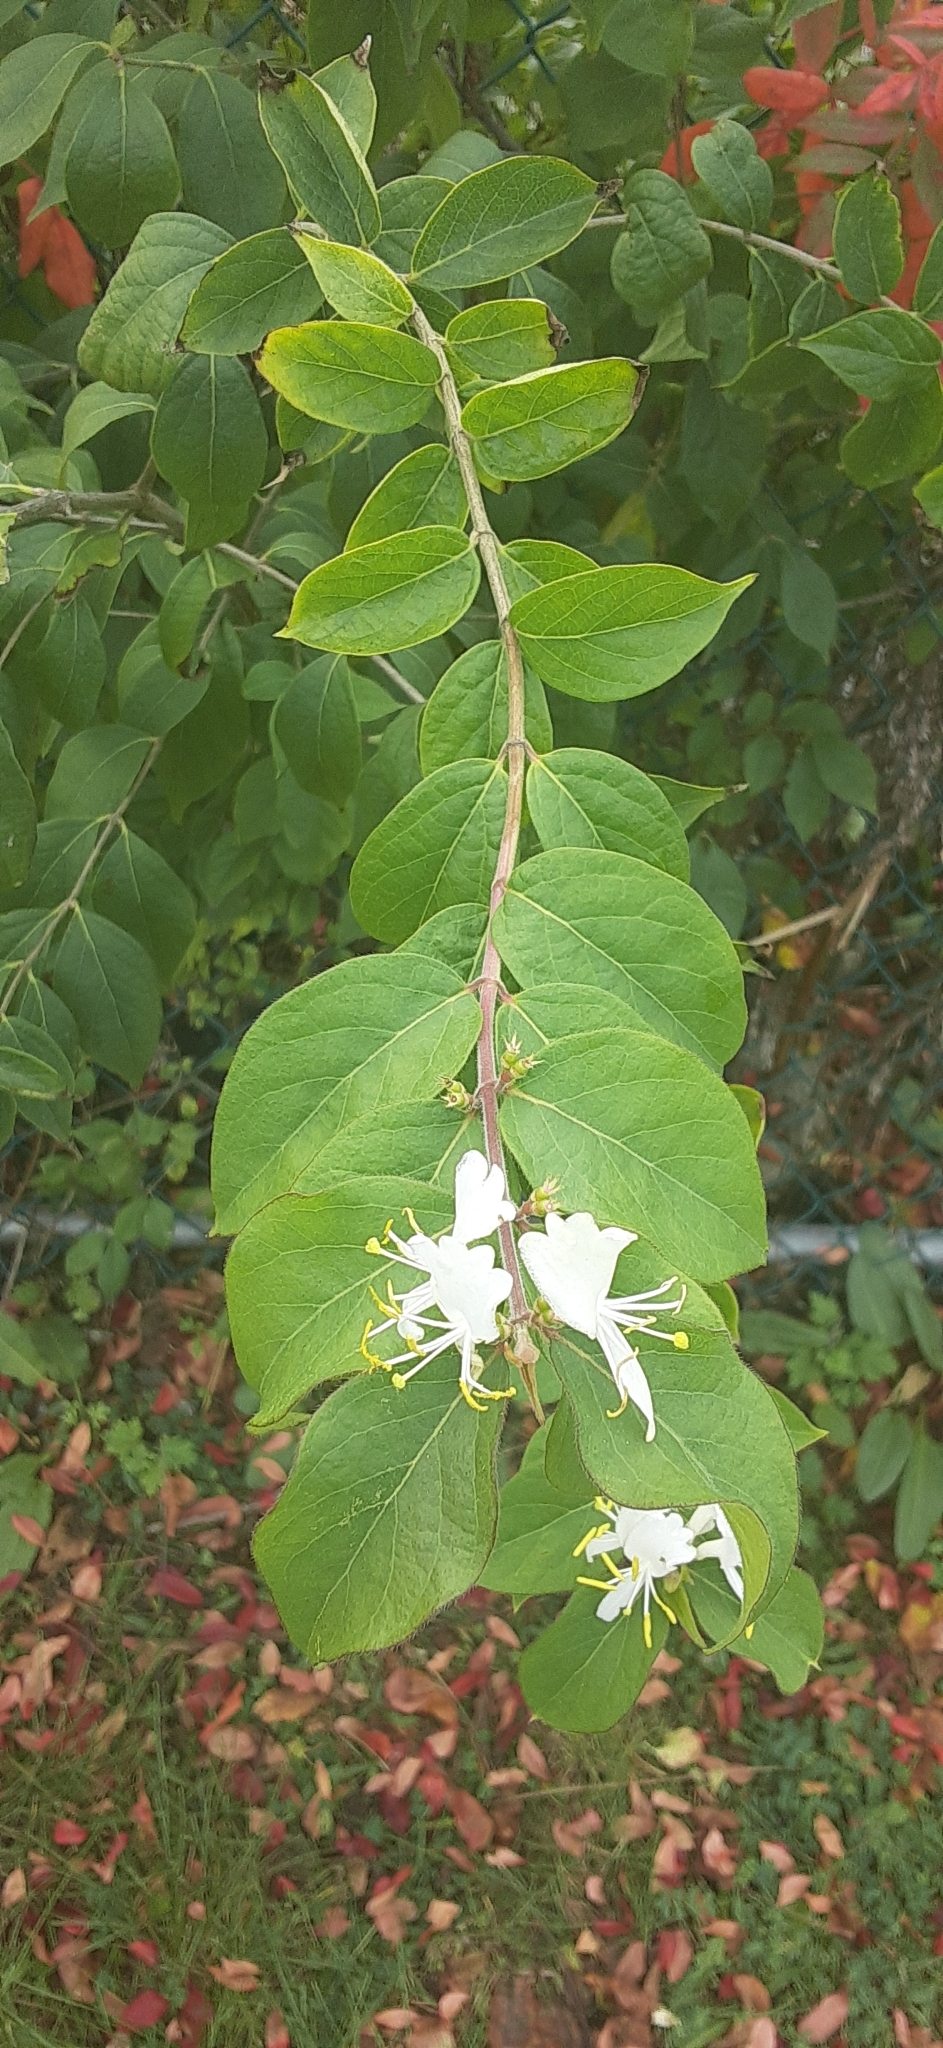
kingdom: Plantae
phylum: Tracheophyta
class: Magnoliopsida
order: Dipsacales
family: Caprifoliaceae
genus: Lonicera
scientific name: Lonicera maackii
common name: Amur honeysuckle
